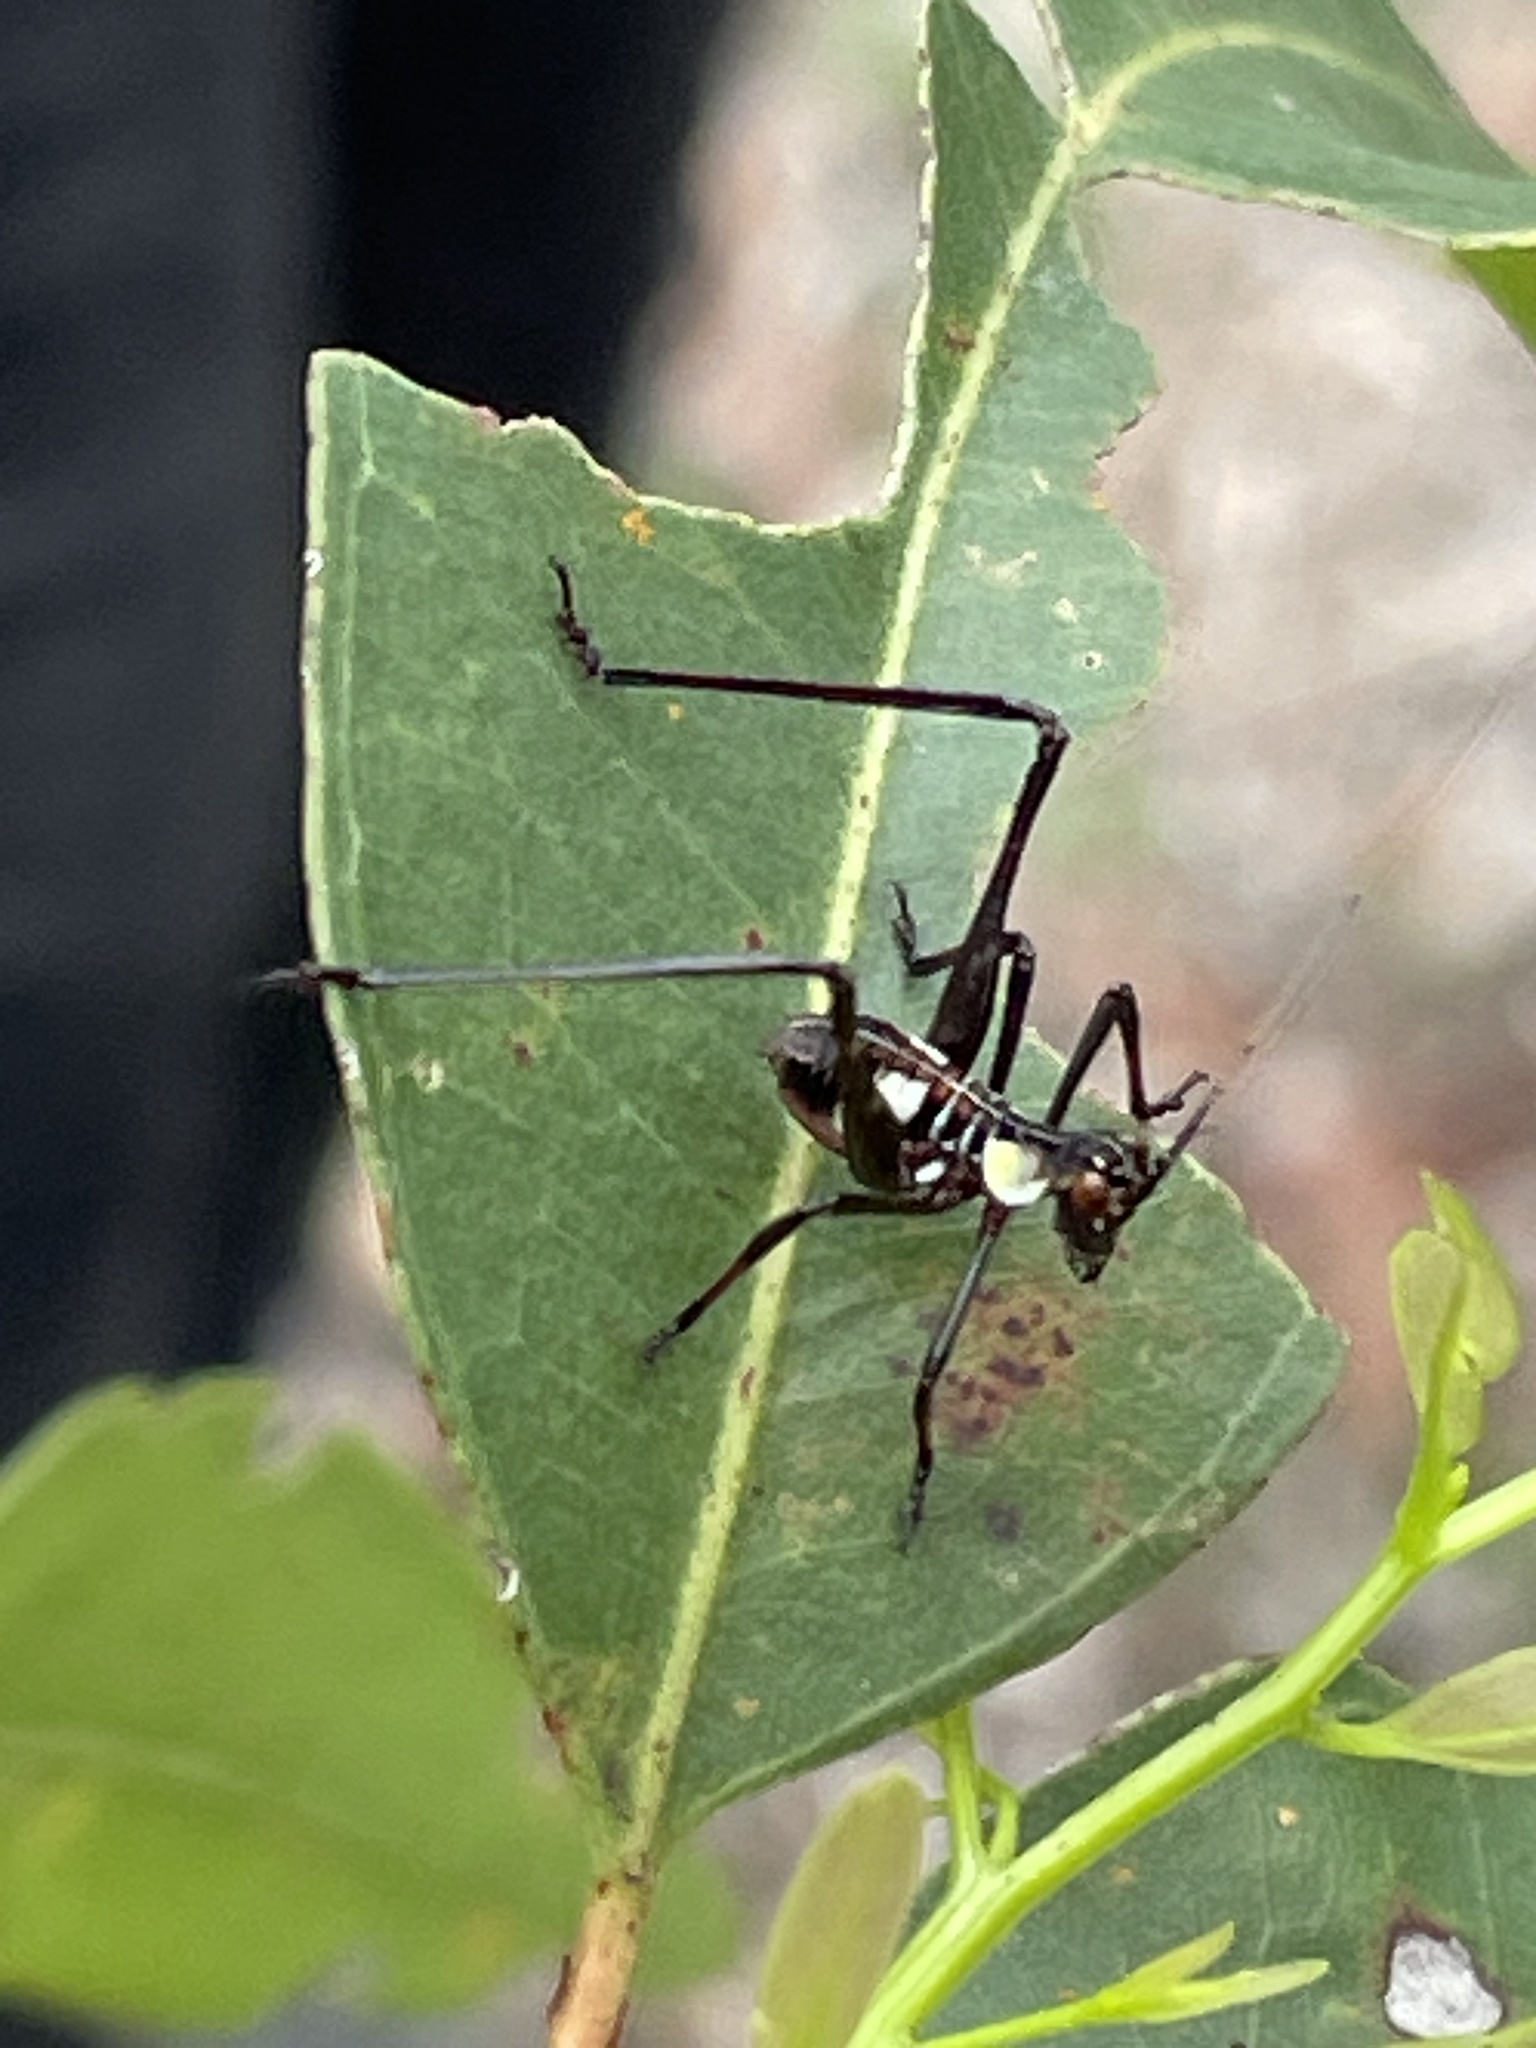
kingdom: Animalia
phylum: Arthropoda
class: Insecta
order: Orthoptera
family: Tettigoniidae
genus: Ephippitytha
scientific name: Ephippitytha trigintiduoguttata
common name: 32-spotted katydid
